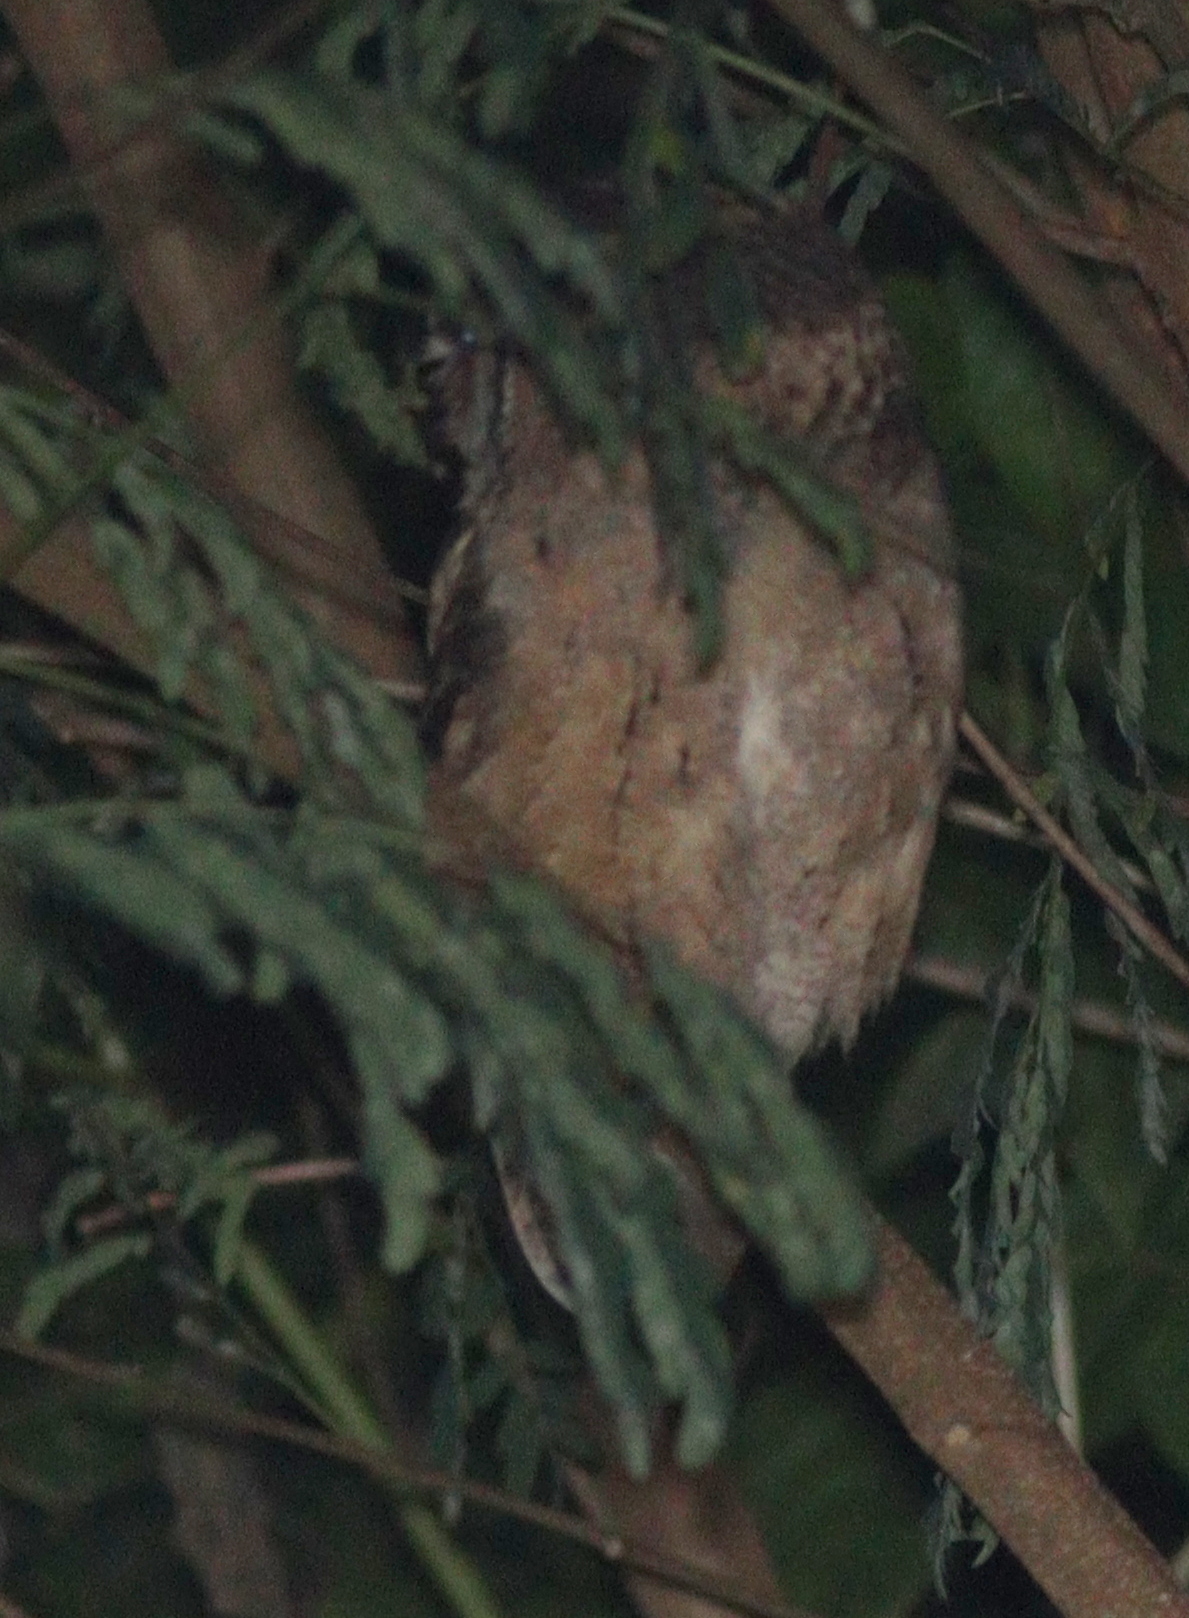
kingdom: Animalia
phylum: Chordata
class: Aves
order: Strigiformes
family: Strigidae
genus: Otus
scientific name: Otus lettia
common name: Collared scops owl
